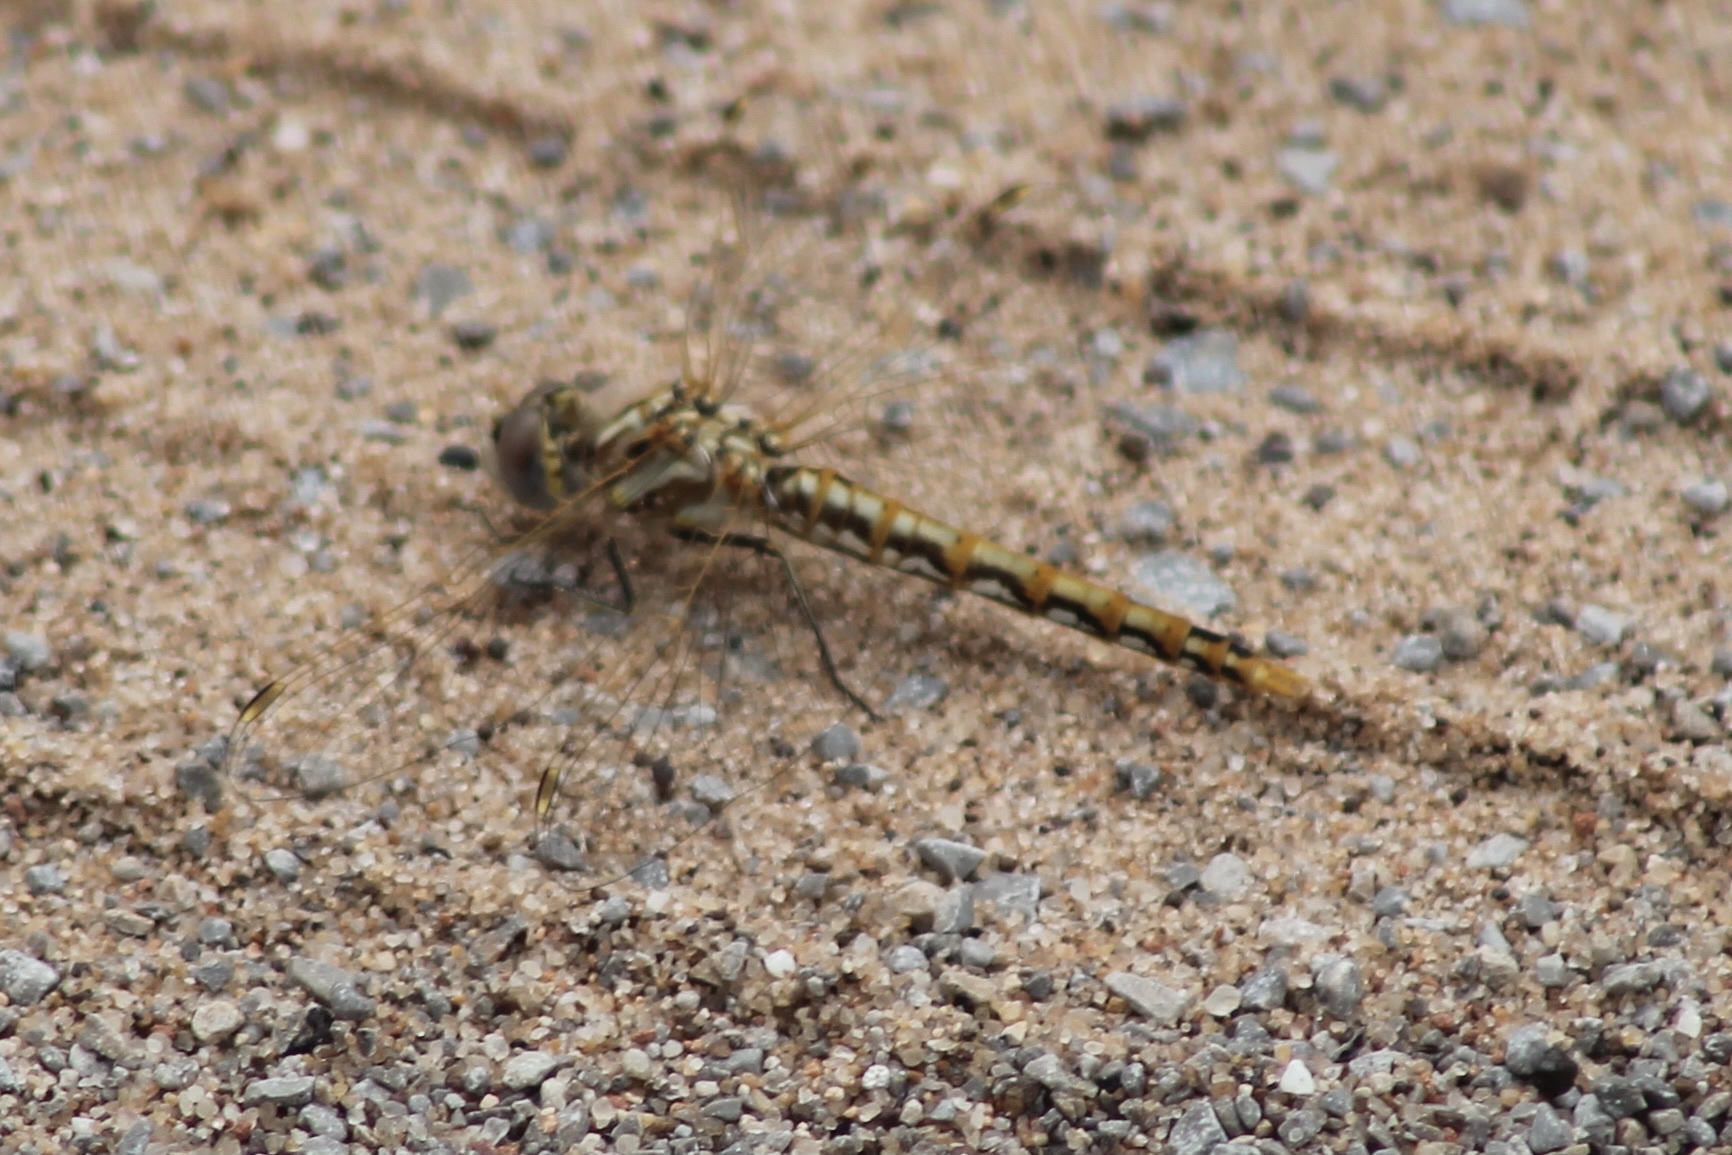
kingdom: Animalia
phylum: Arthropoda
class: Insecta
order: Odonata
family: Libellulidae
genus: Sympetrum
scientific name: Sympetrum corruptum
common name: Variegated meadowhawk
